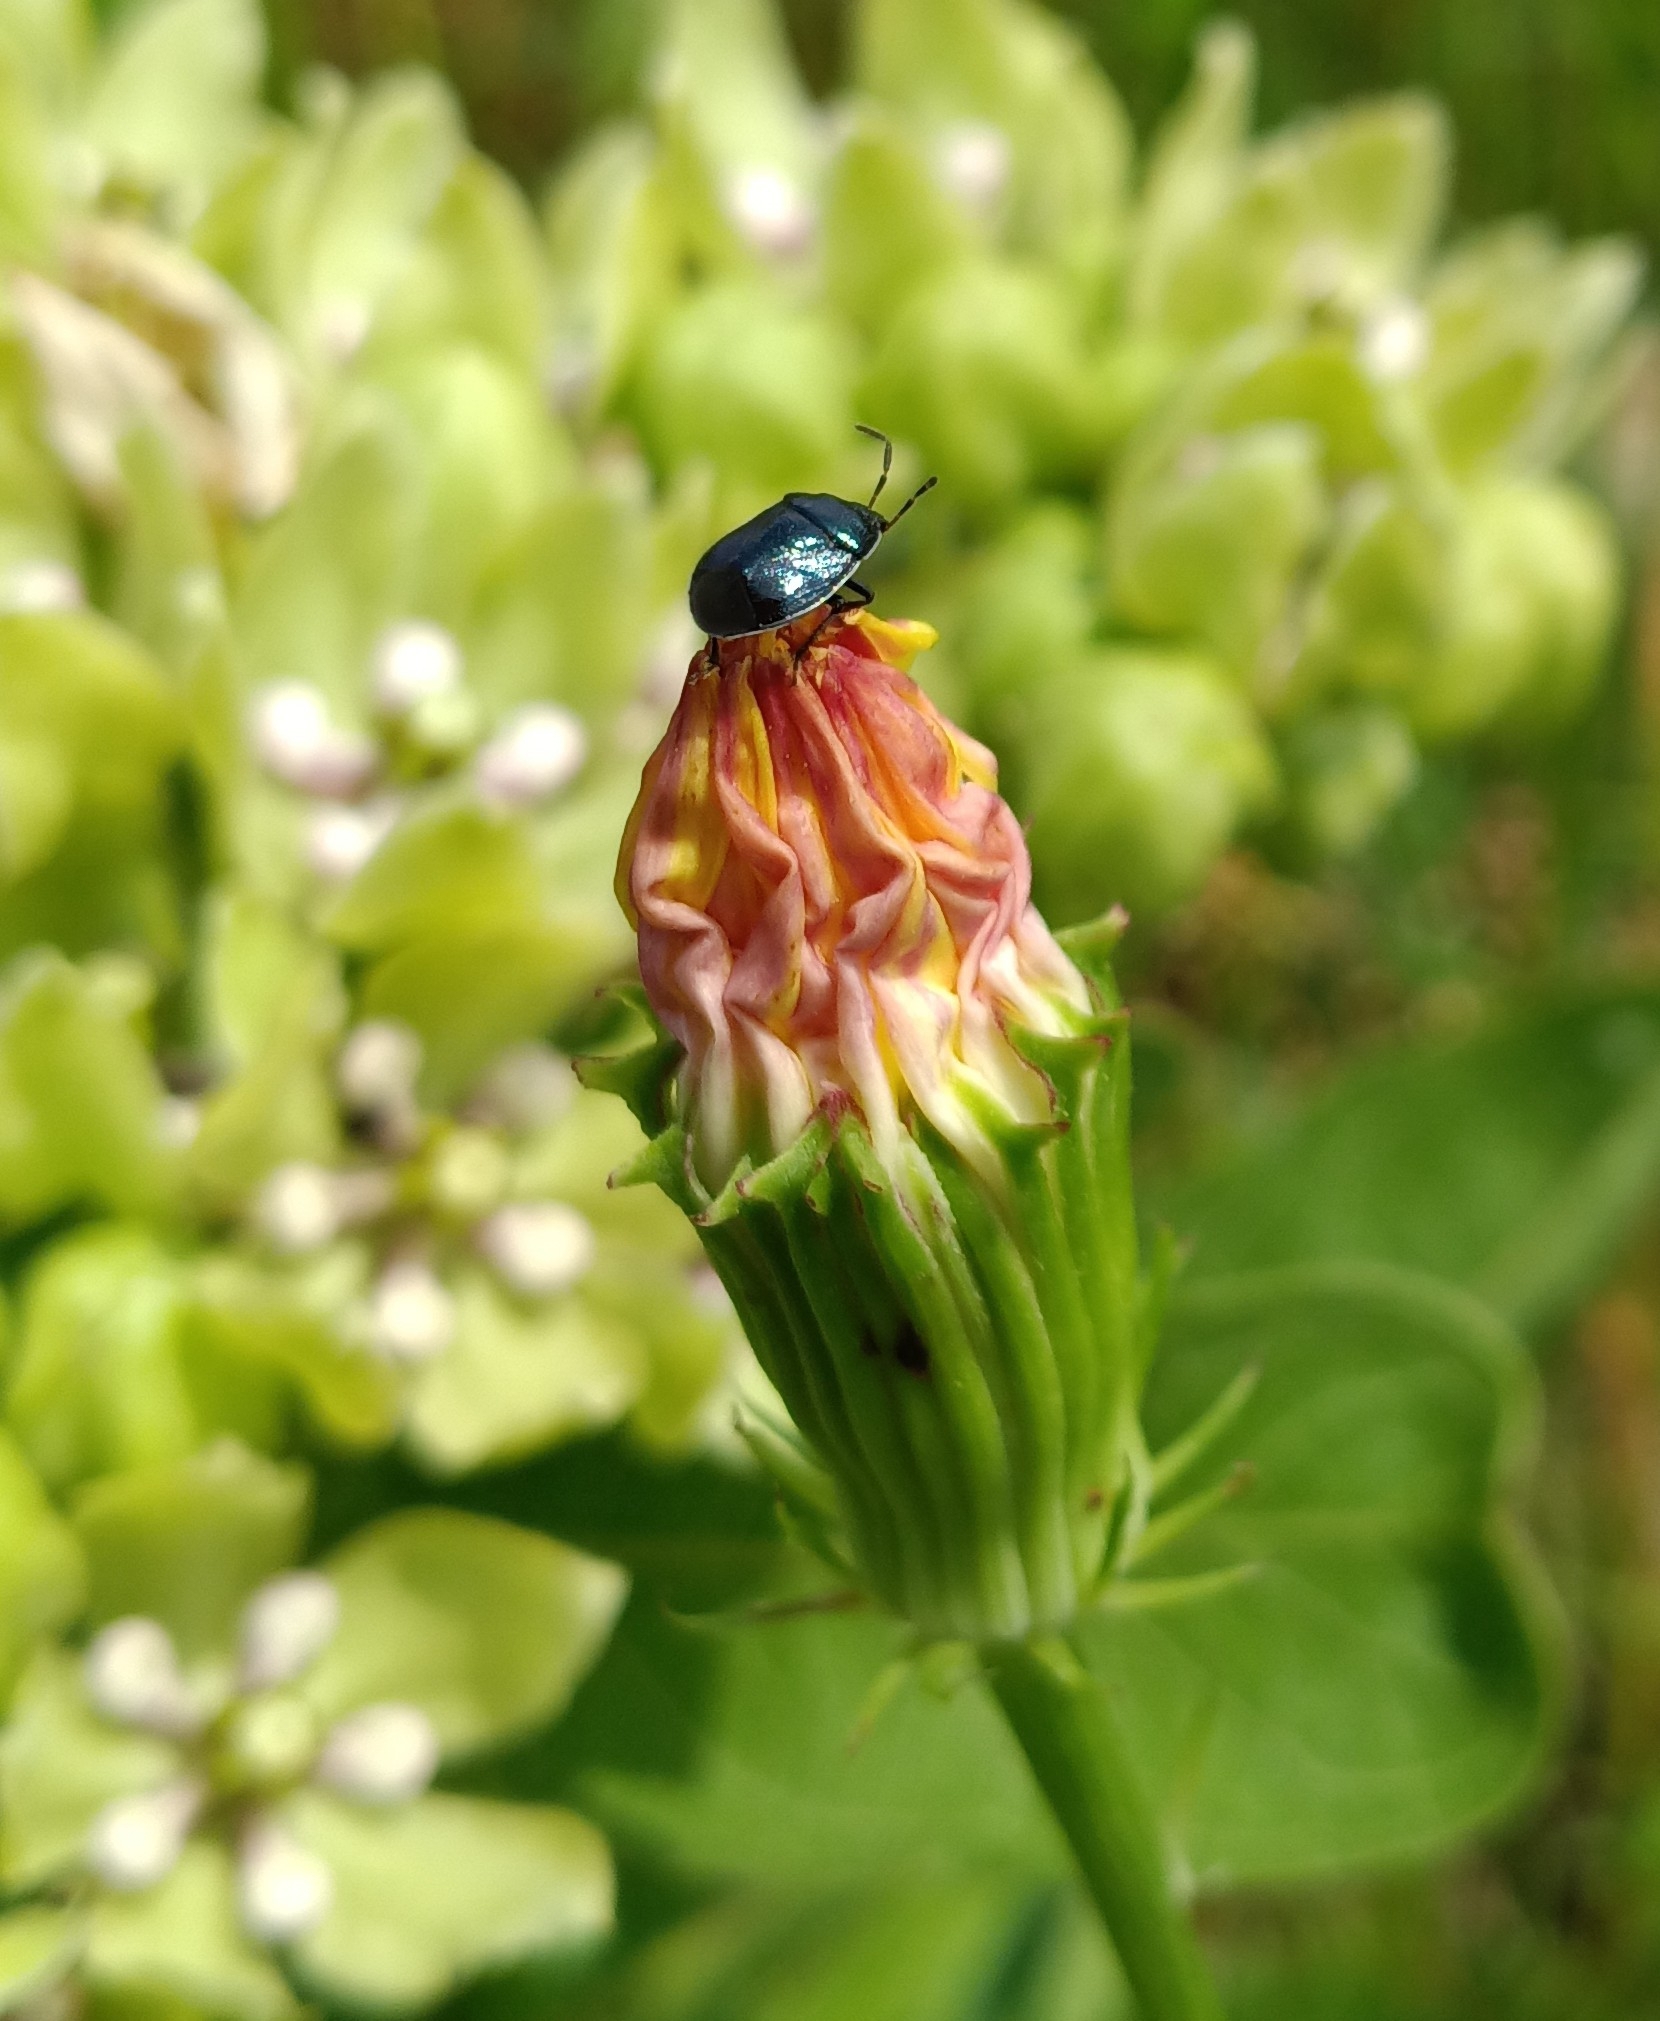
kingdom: Animalia
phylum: Arthropoda
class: Insecta
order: Hemiptera
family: Cydnidae
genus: Sehirus
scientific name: Sehirus cinctus
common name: White-margined burrower bug
